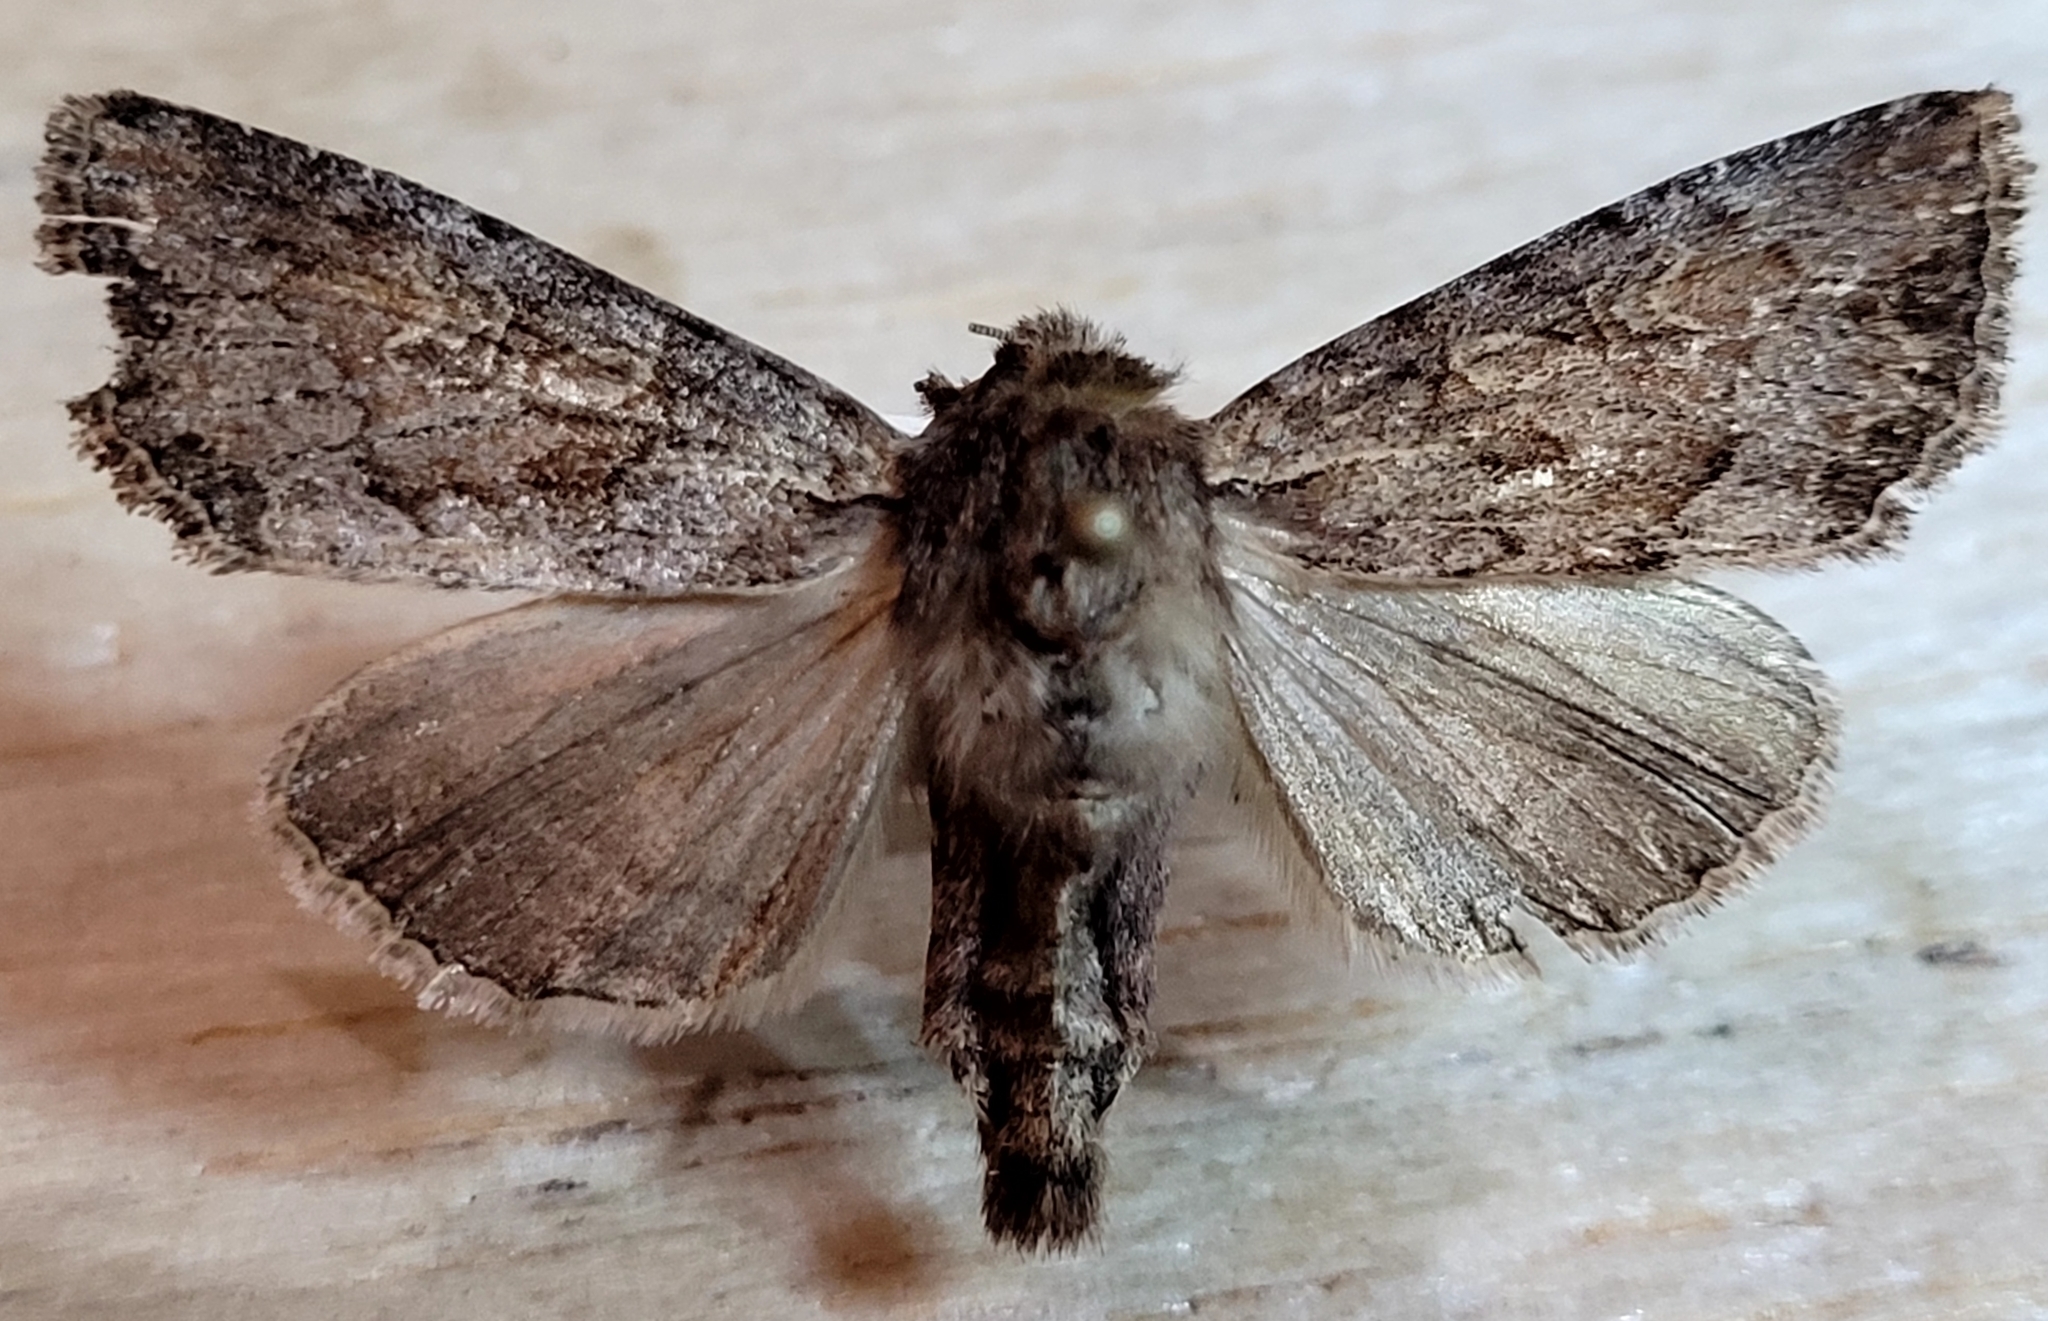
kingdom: Animalia
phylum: Arthropoda
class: Insecta
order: Lepidoptera
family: Noctuidae
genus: Apamea
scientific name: Apamea commoda
